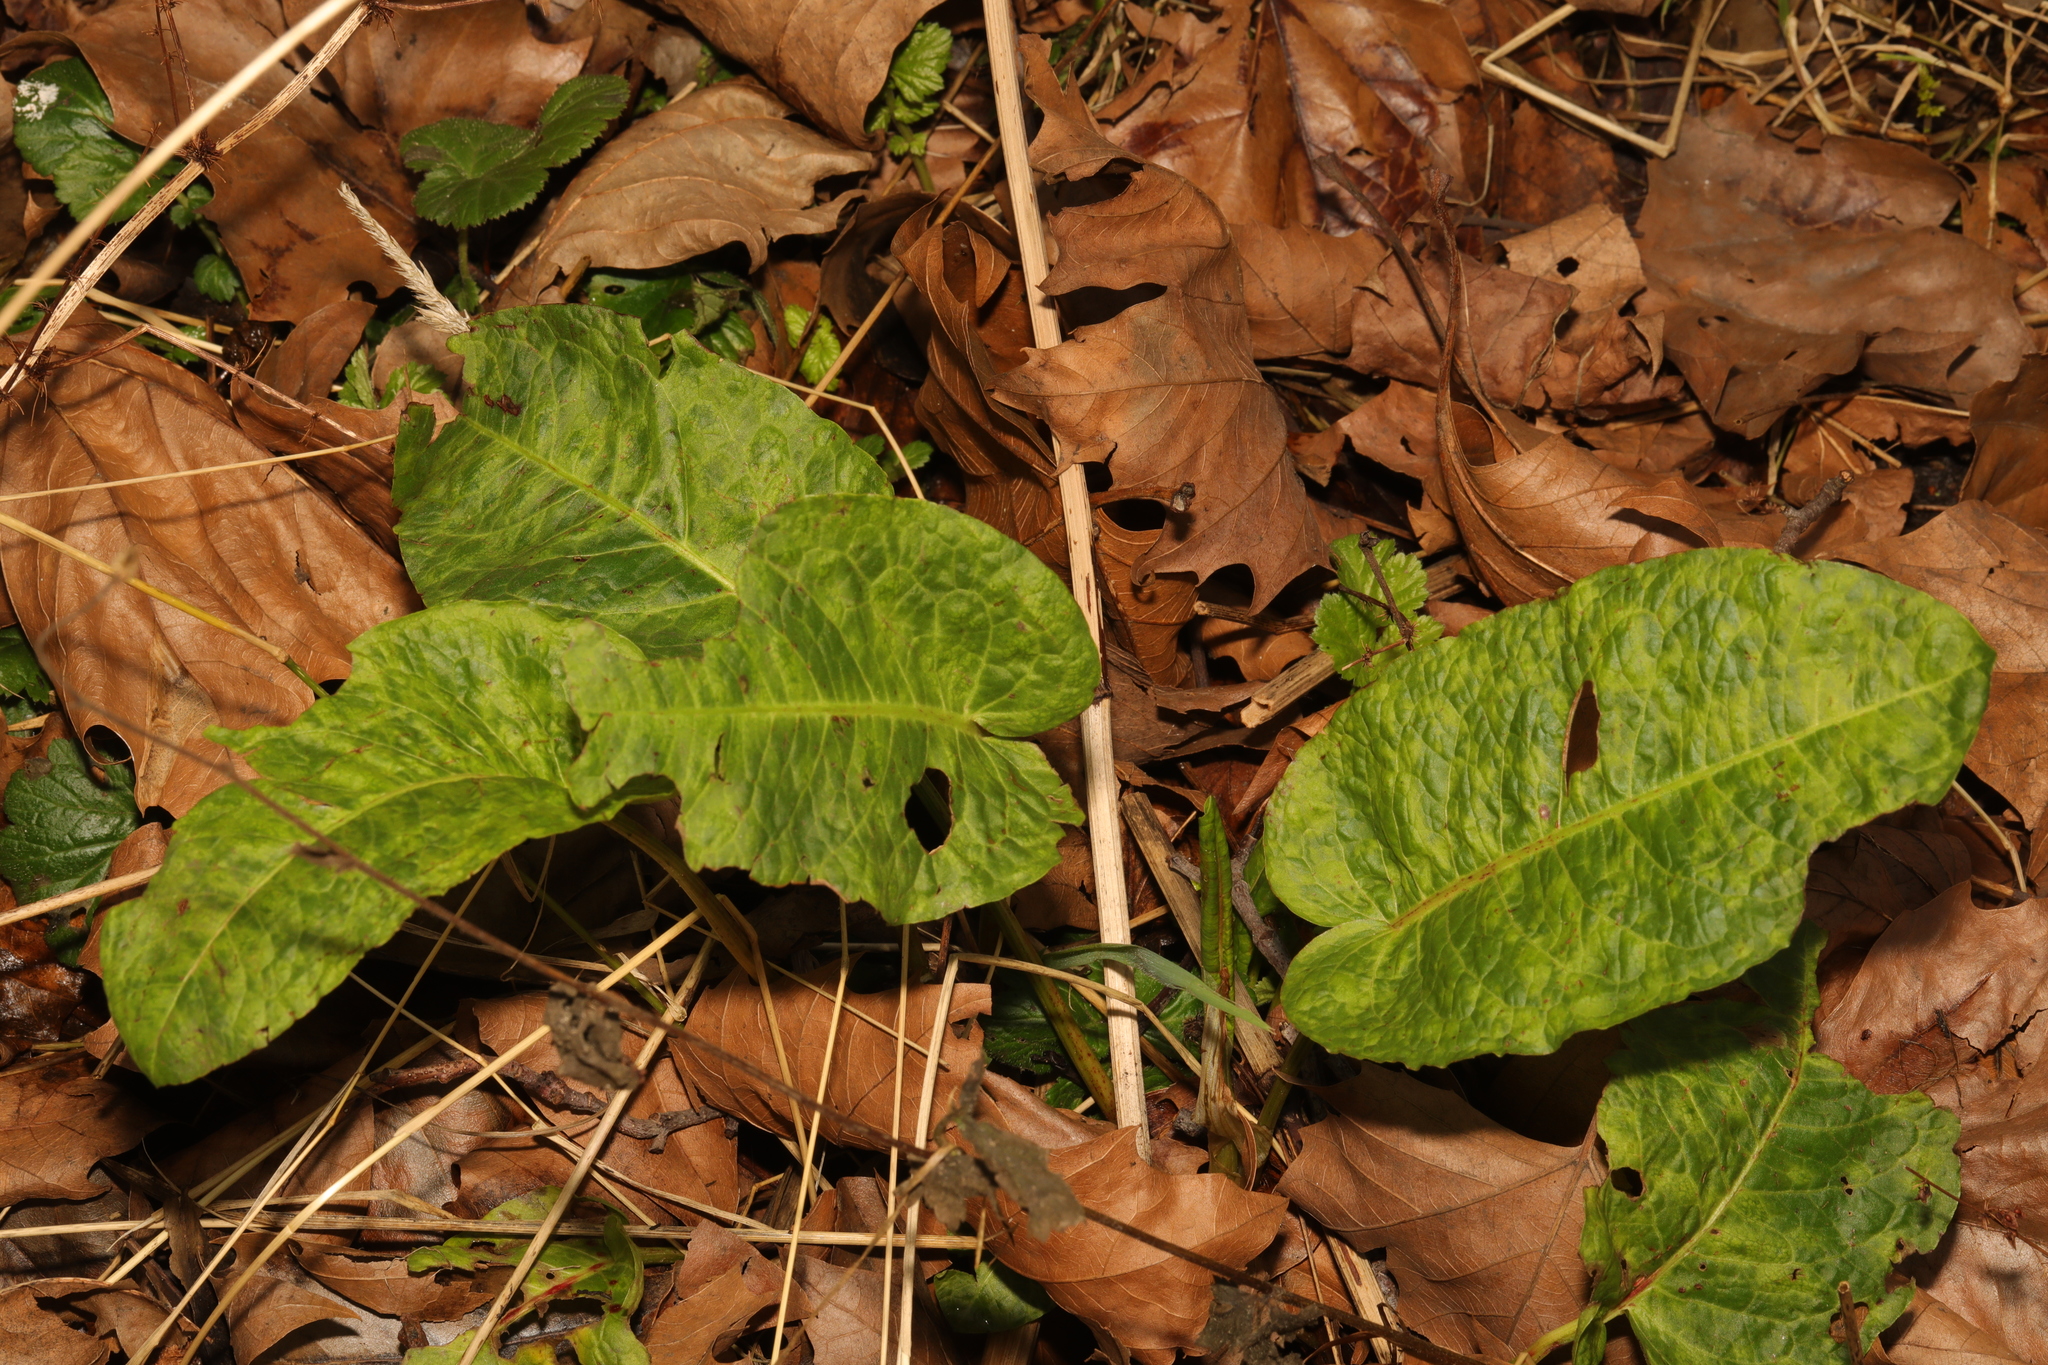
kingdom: Plantae
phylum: Tracheophyta
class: Magnoliopsida
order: Caryophyllales
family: Polygonaceae
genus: Rumex
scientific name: Rumex obtusifolius
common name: Bitter dock
